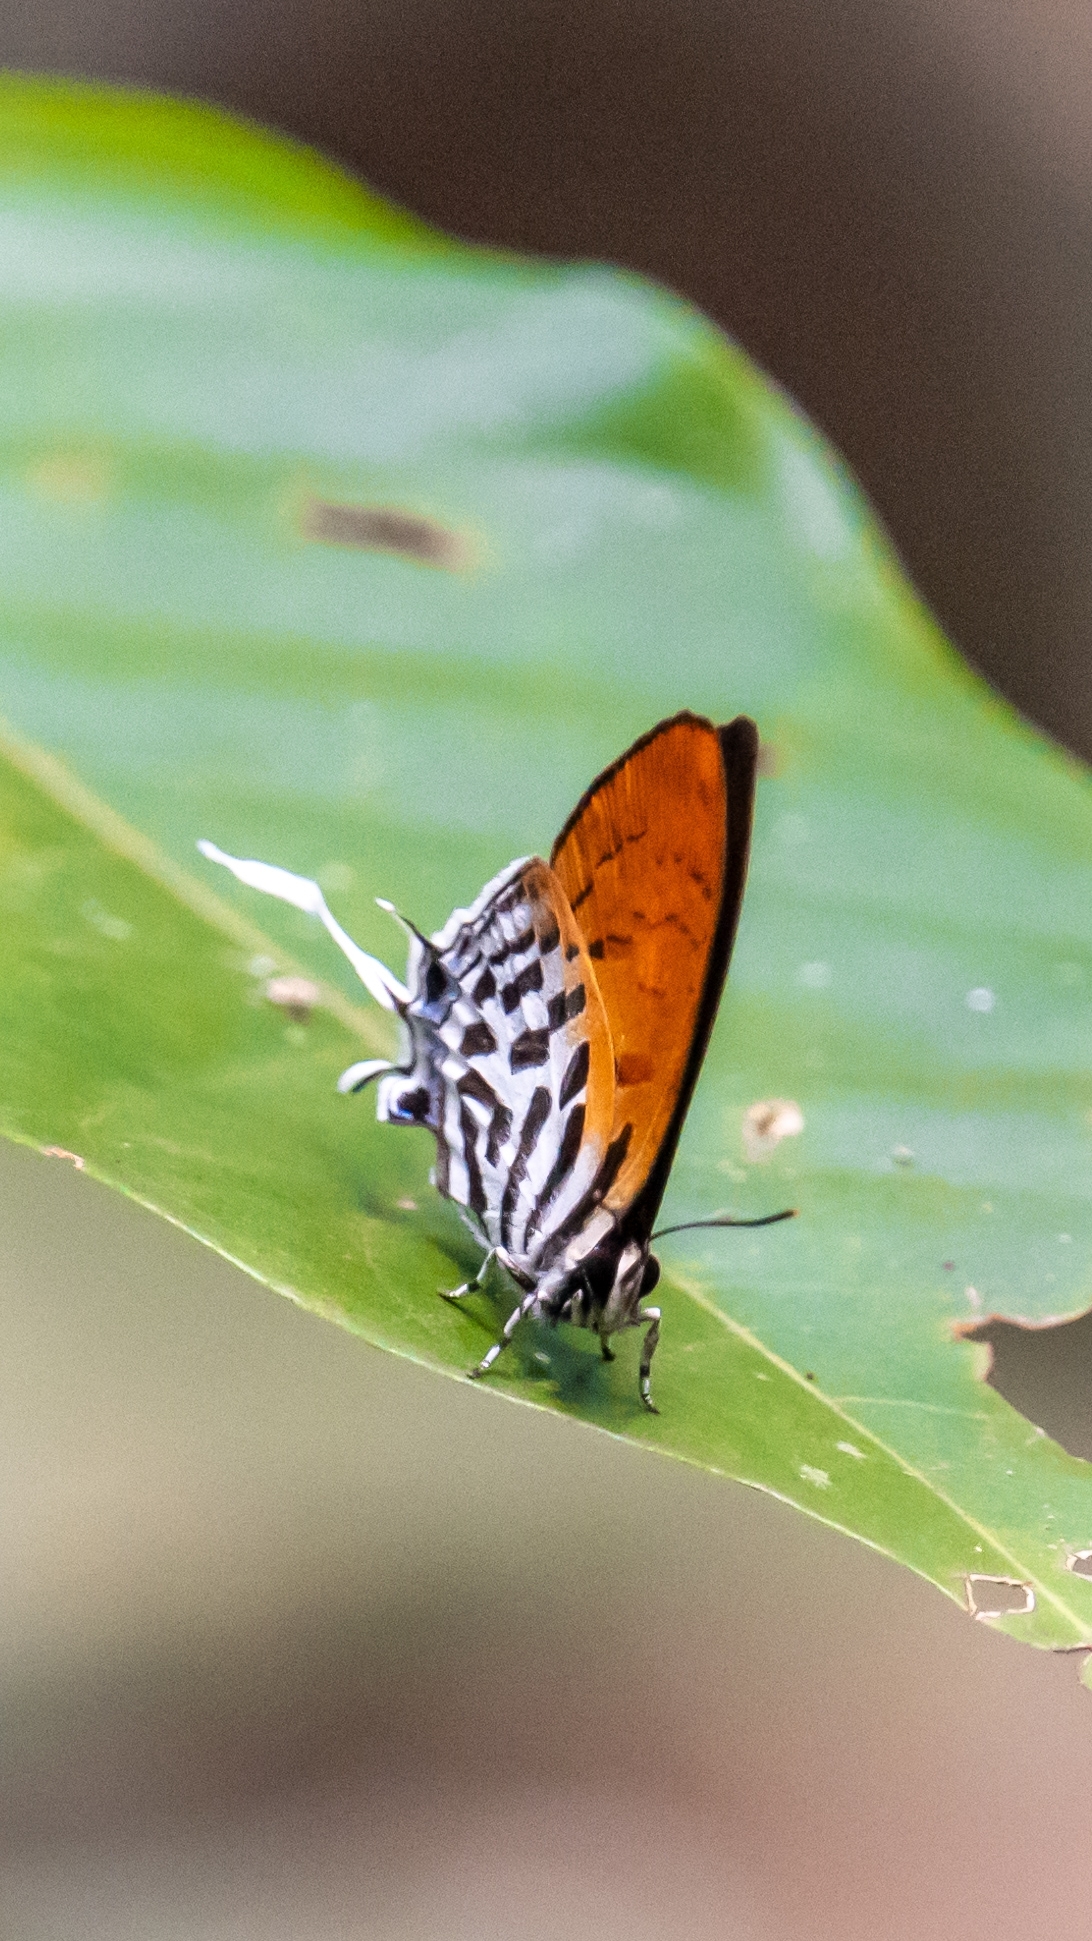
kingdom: Animalia
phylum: Arthropoda
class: Insecta
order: Lepidoptera
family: Lycaenidae
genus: Drupadia
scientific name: Drupadia ravindra
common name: Common posy
